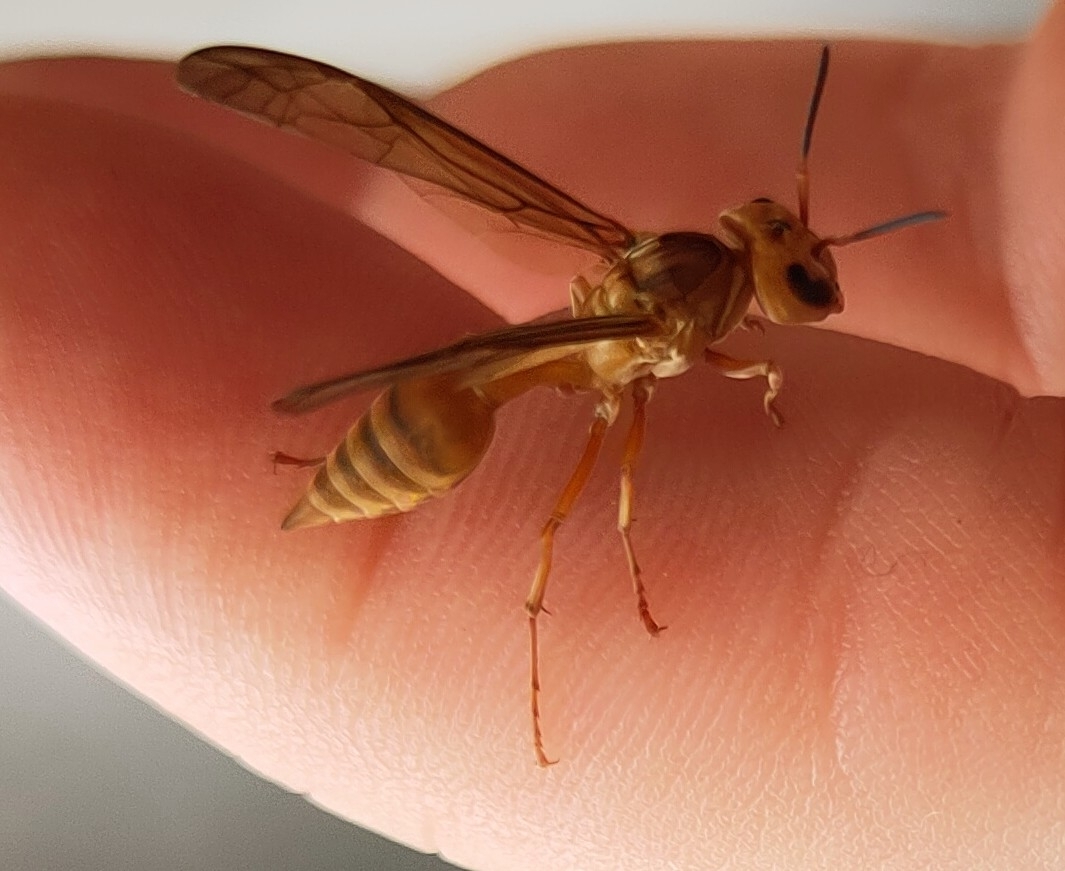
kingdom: Animalia
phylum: Arthropoda
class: Insecta
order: Hymenoptera
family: Vespidae
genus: Synoeca
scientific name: Synoeca virginea
